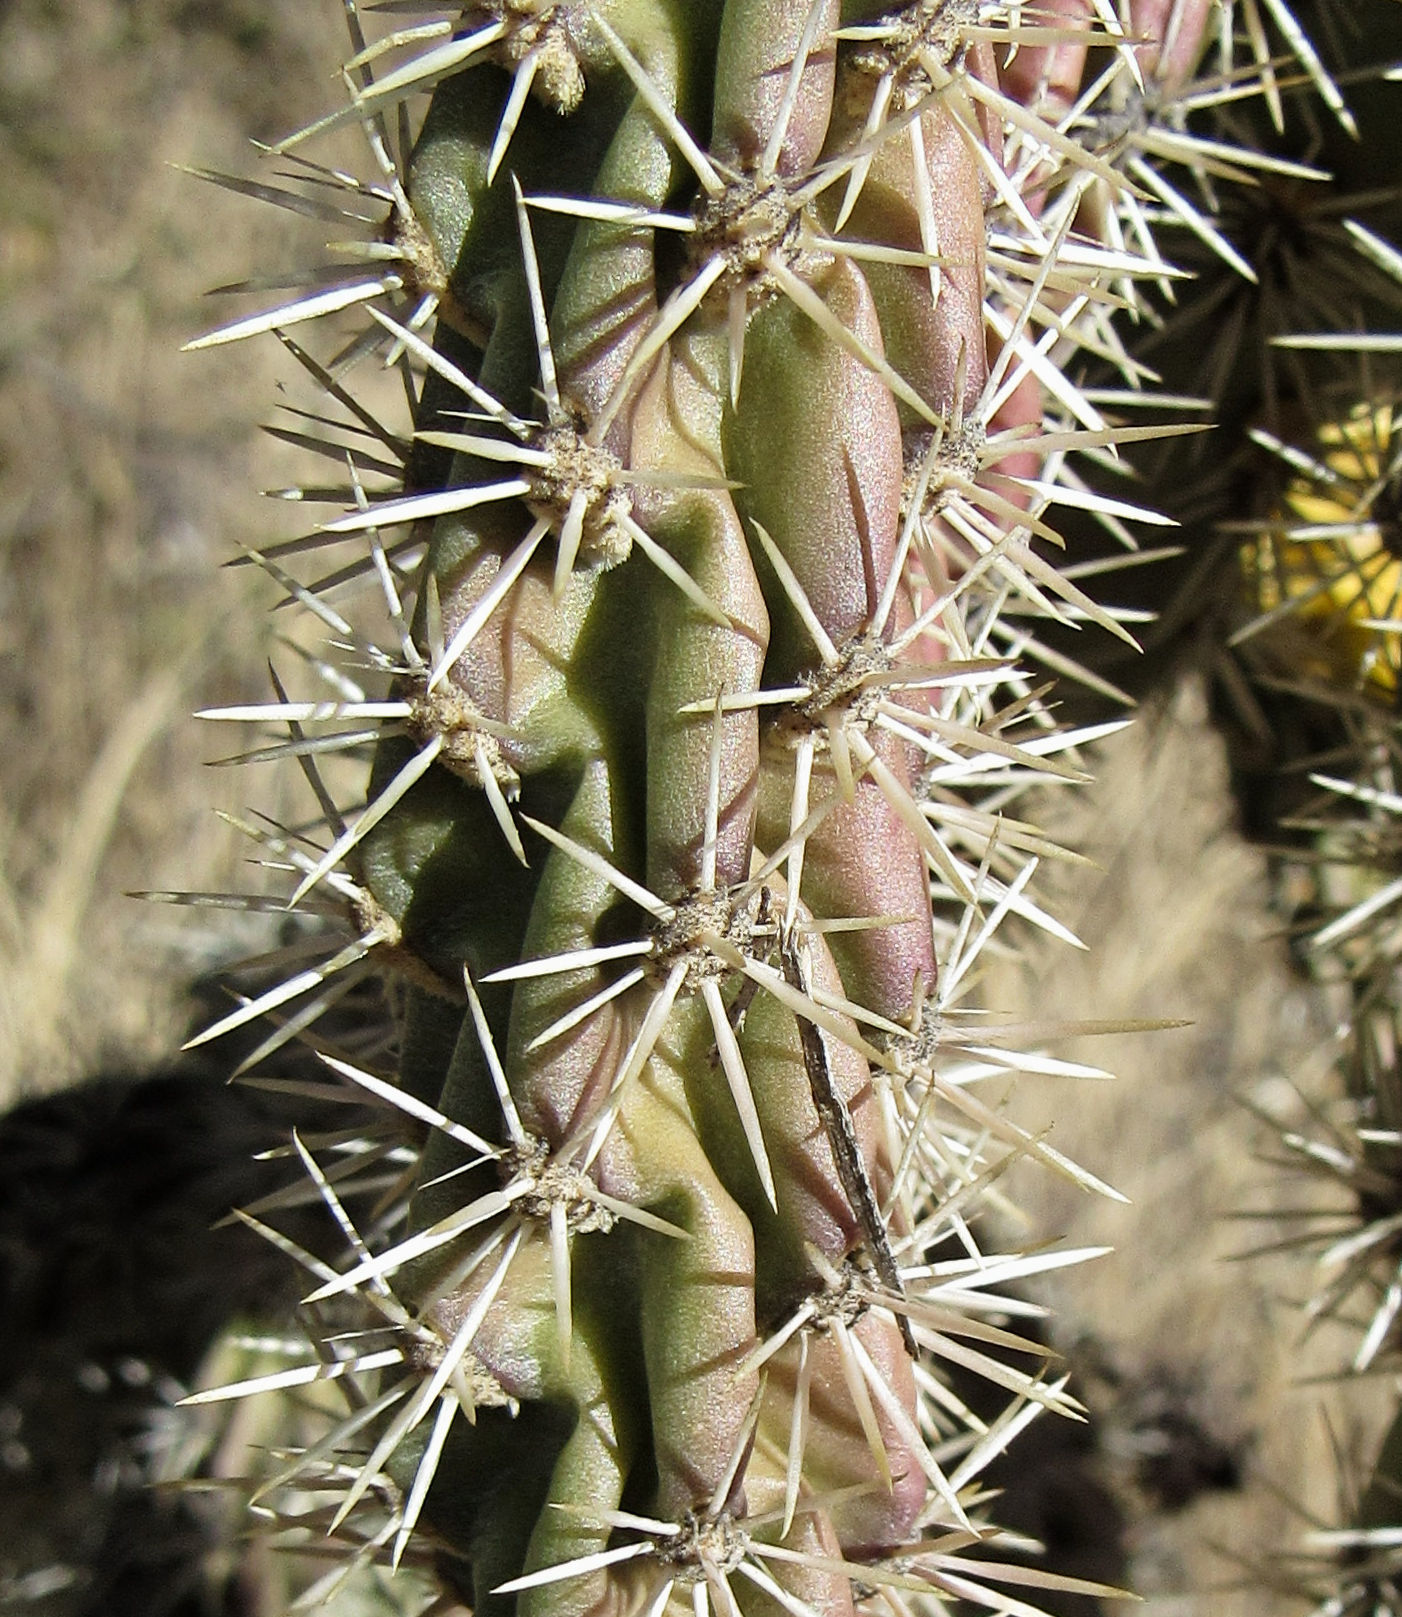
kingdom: Plantae
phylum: Tracheophyta
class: Magnoliopsida
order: Caryophyllales
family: Cactaceae
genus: Cylindropuntia
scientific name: Cylindropuntia imbricata
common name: Candelabrum cactus
